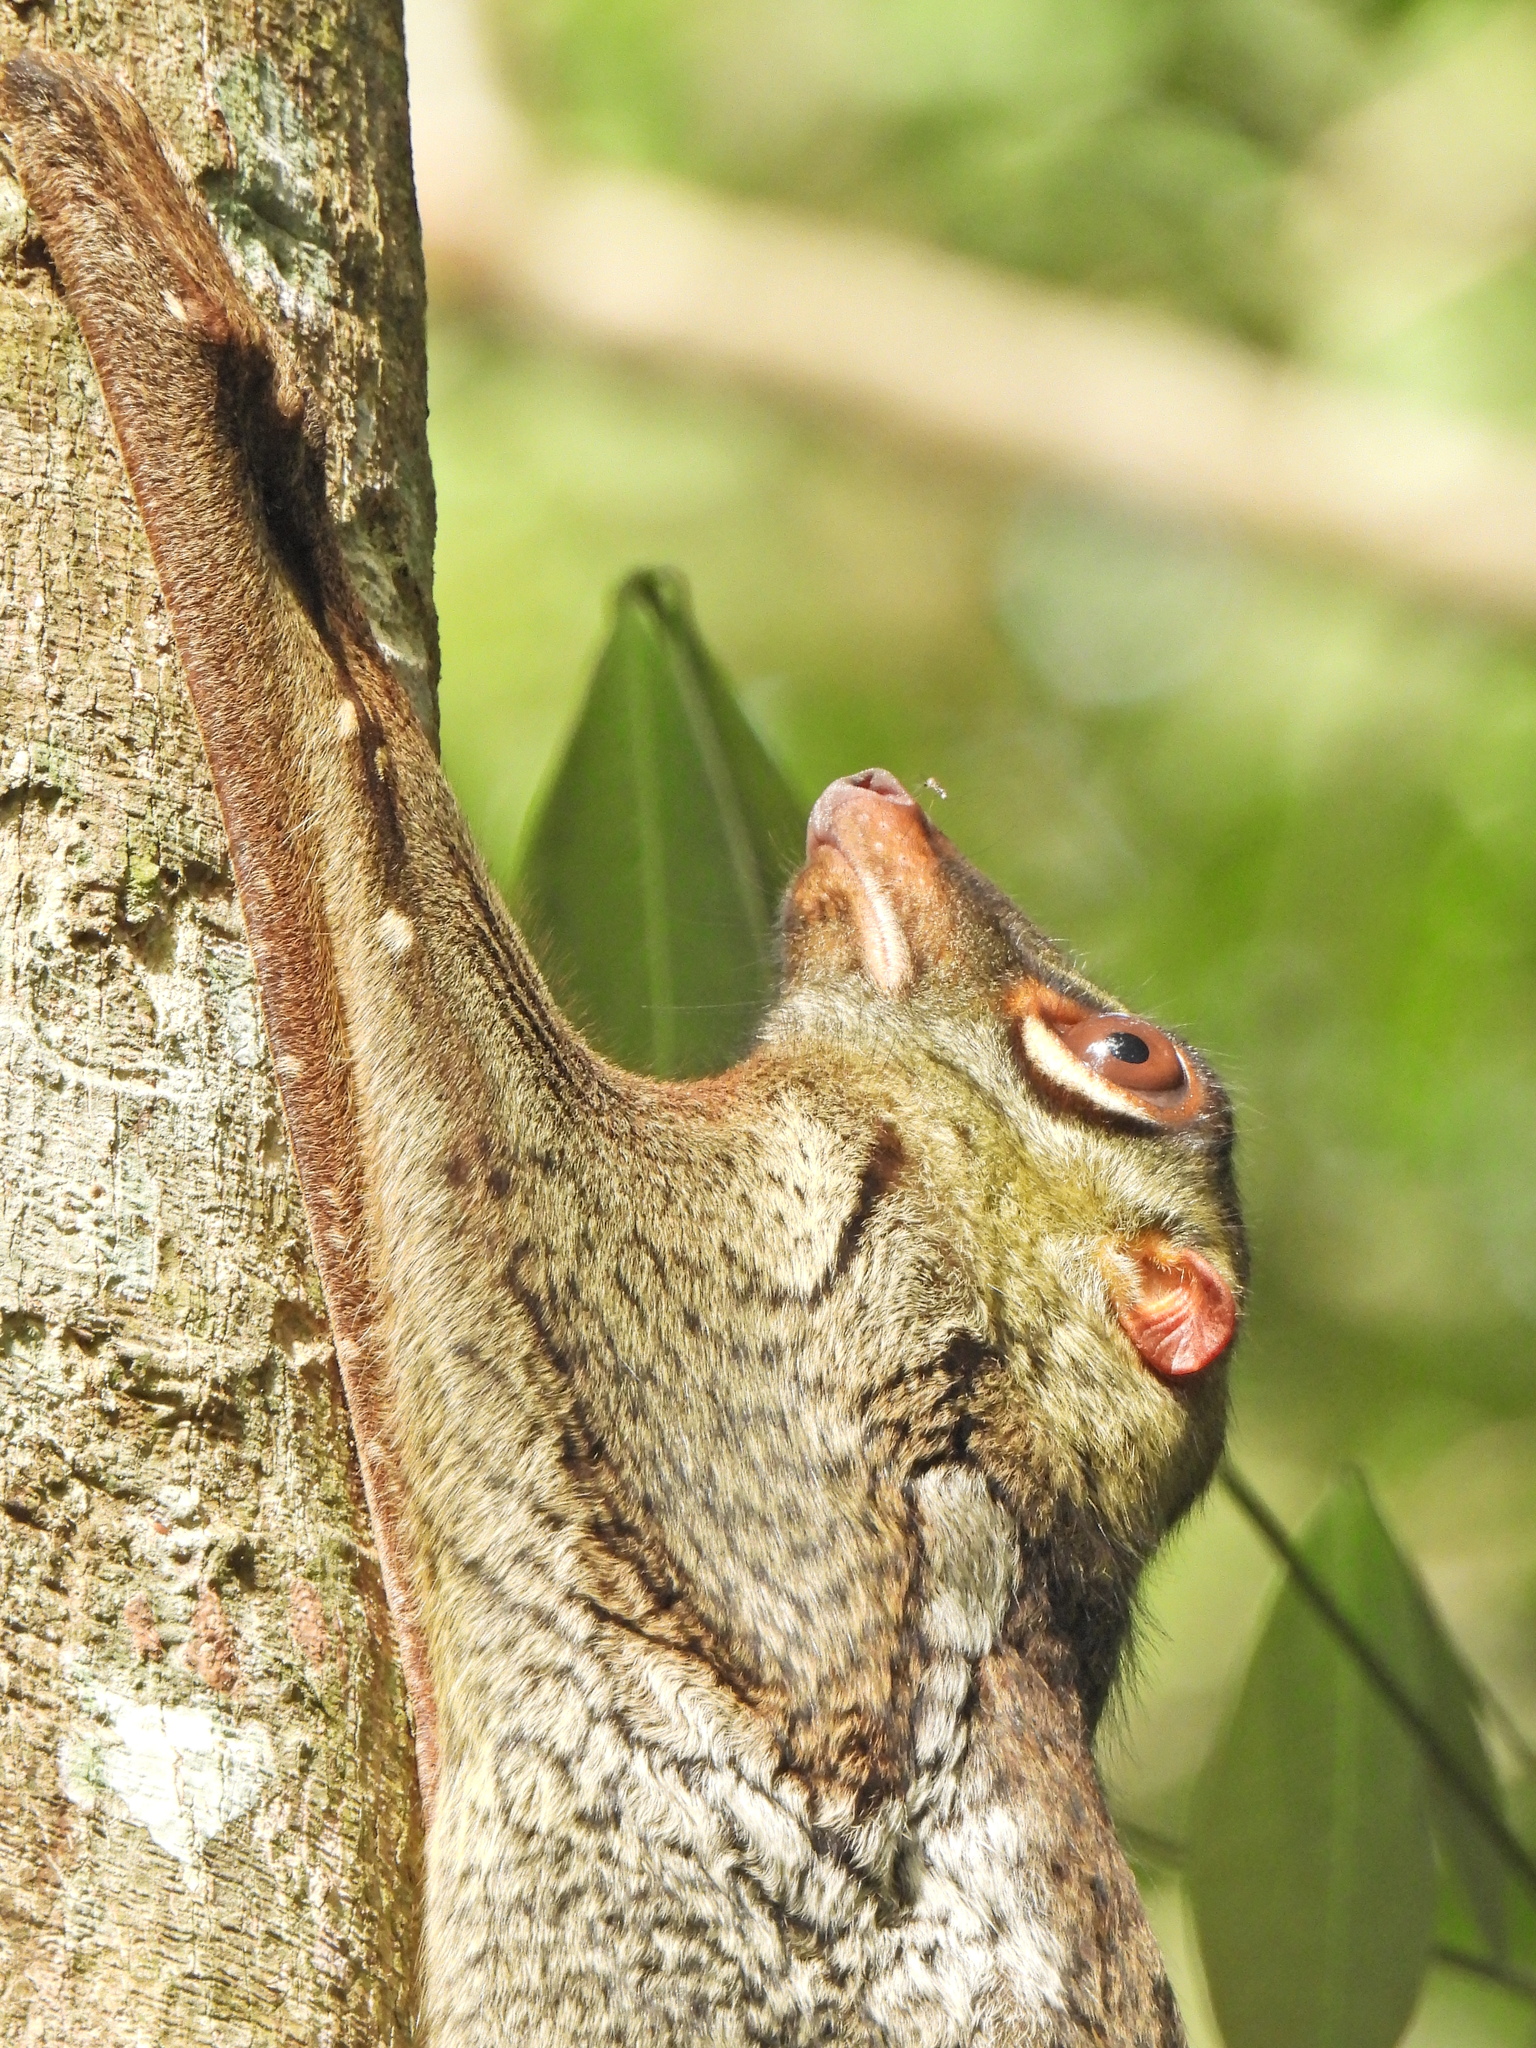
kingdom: Animalia
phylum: Chordata
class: Mammalia
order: Dermoptera
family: Cynocephalidae
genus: Galeopterus
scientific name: Galeopterus variegatus
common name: Sunda flying lemur
